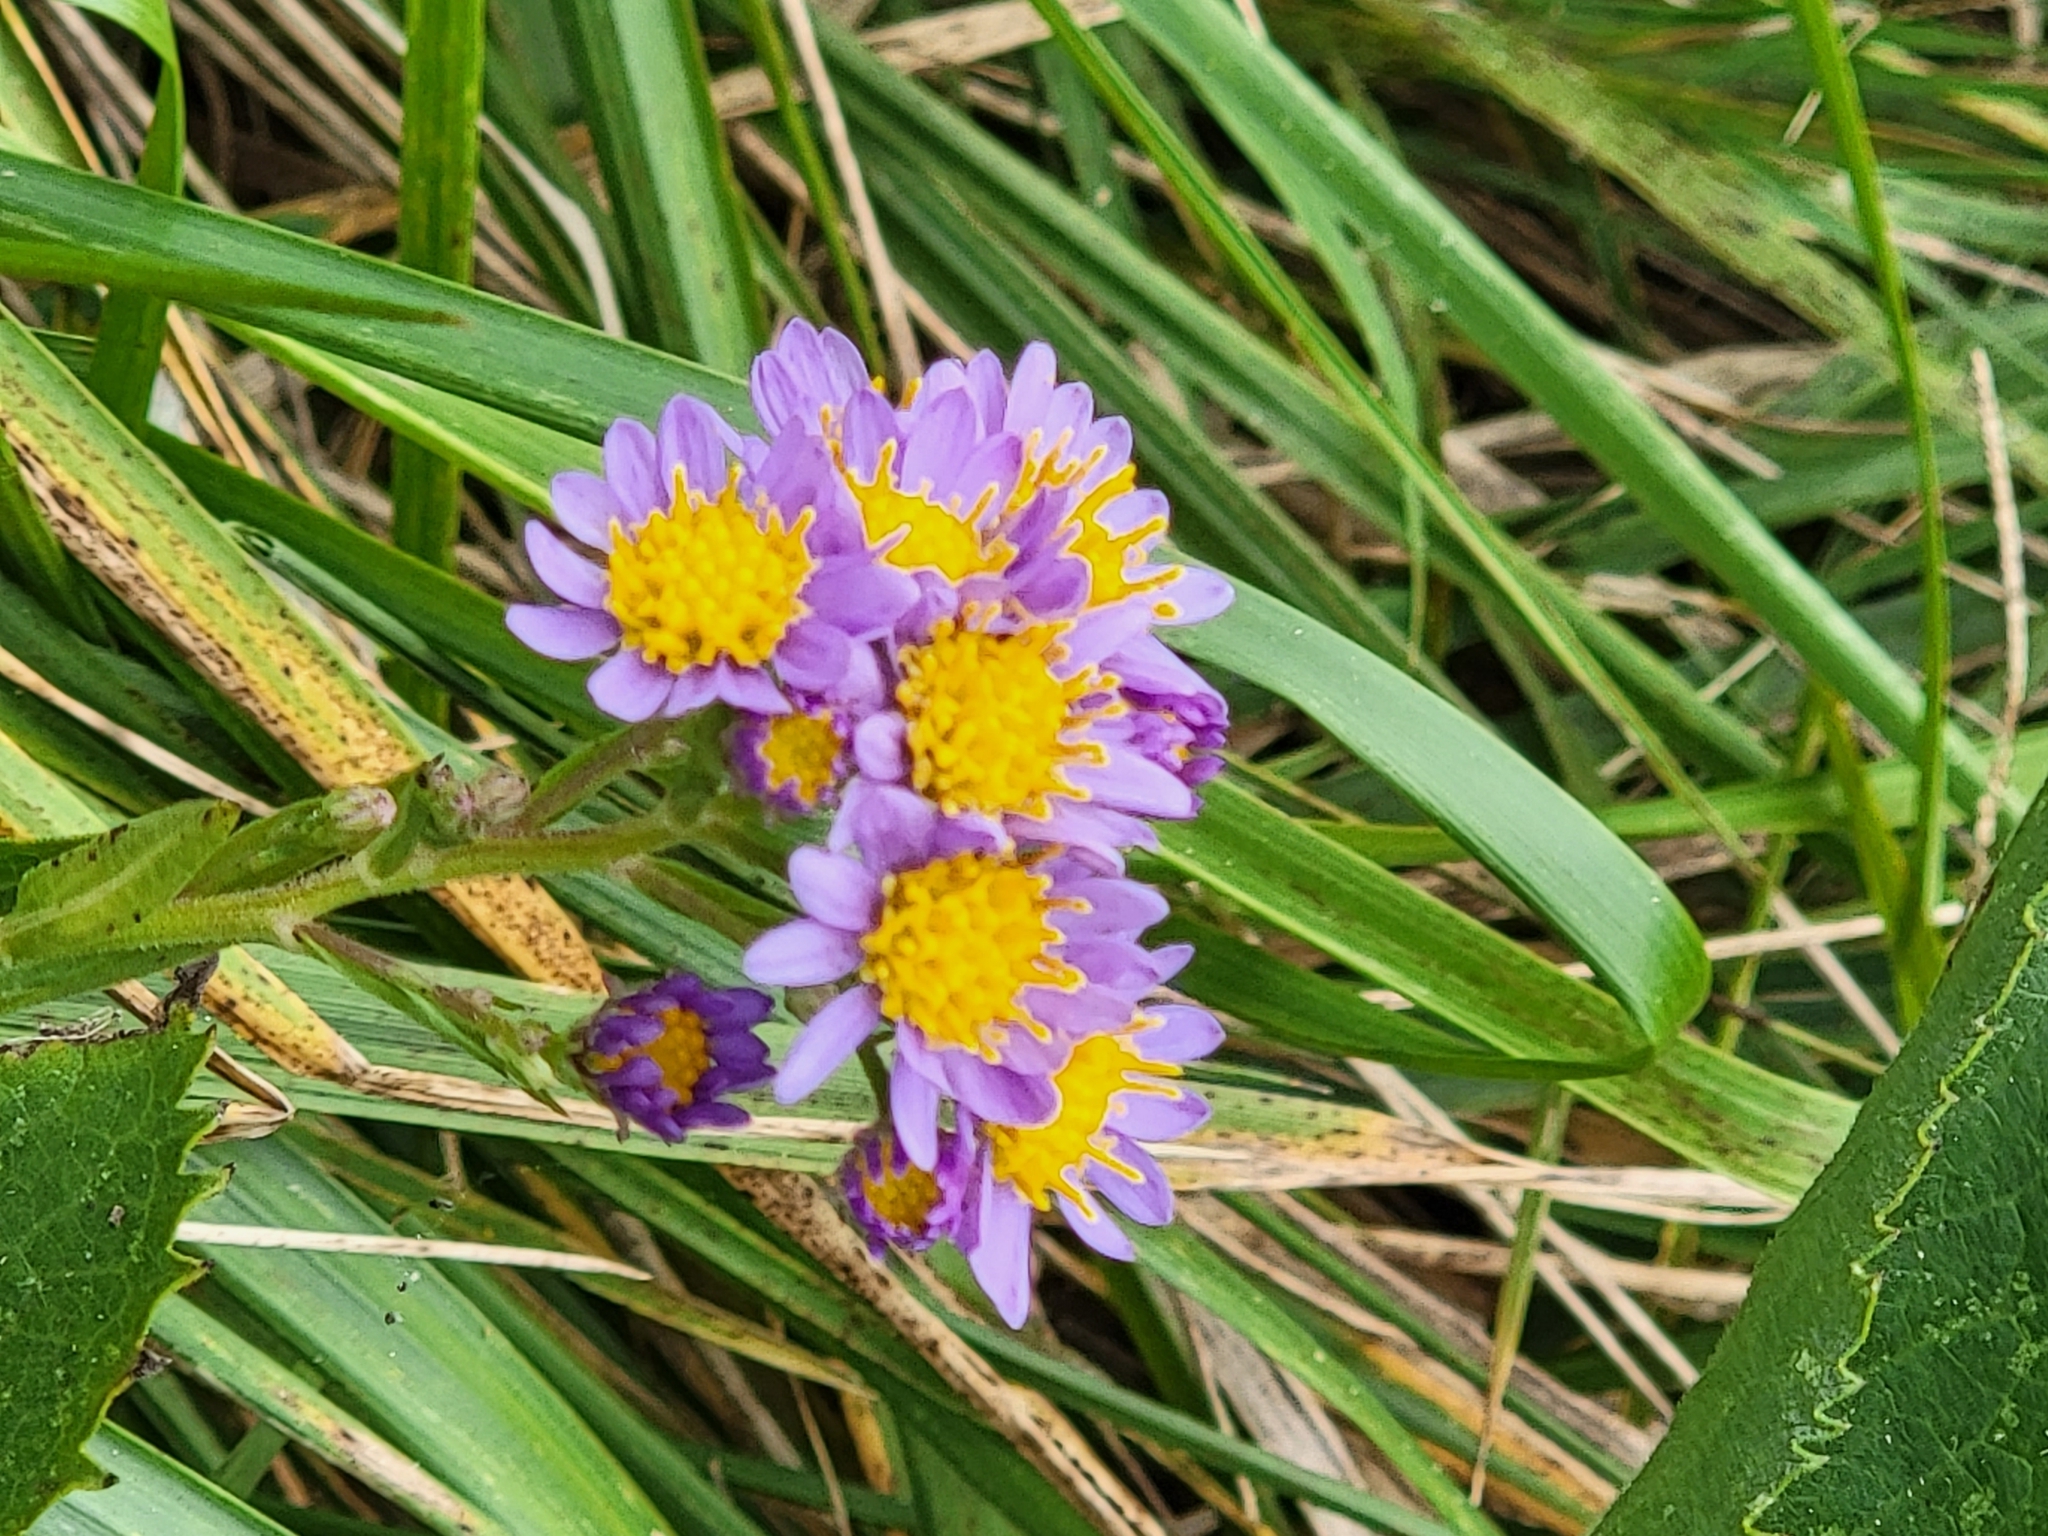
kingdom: Plantae
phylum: Tracheophyta
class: Magnoliopsida
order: Asterales
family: Asteraceae
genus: Aster
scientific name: Aster tataricus
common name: Tatarian aster
